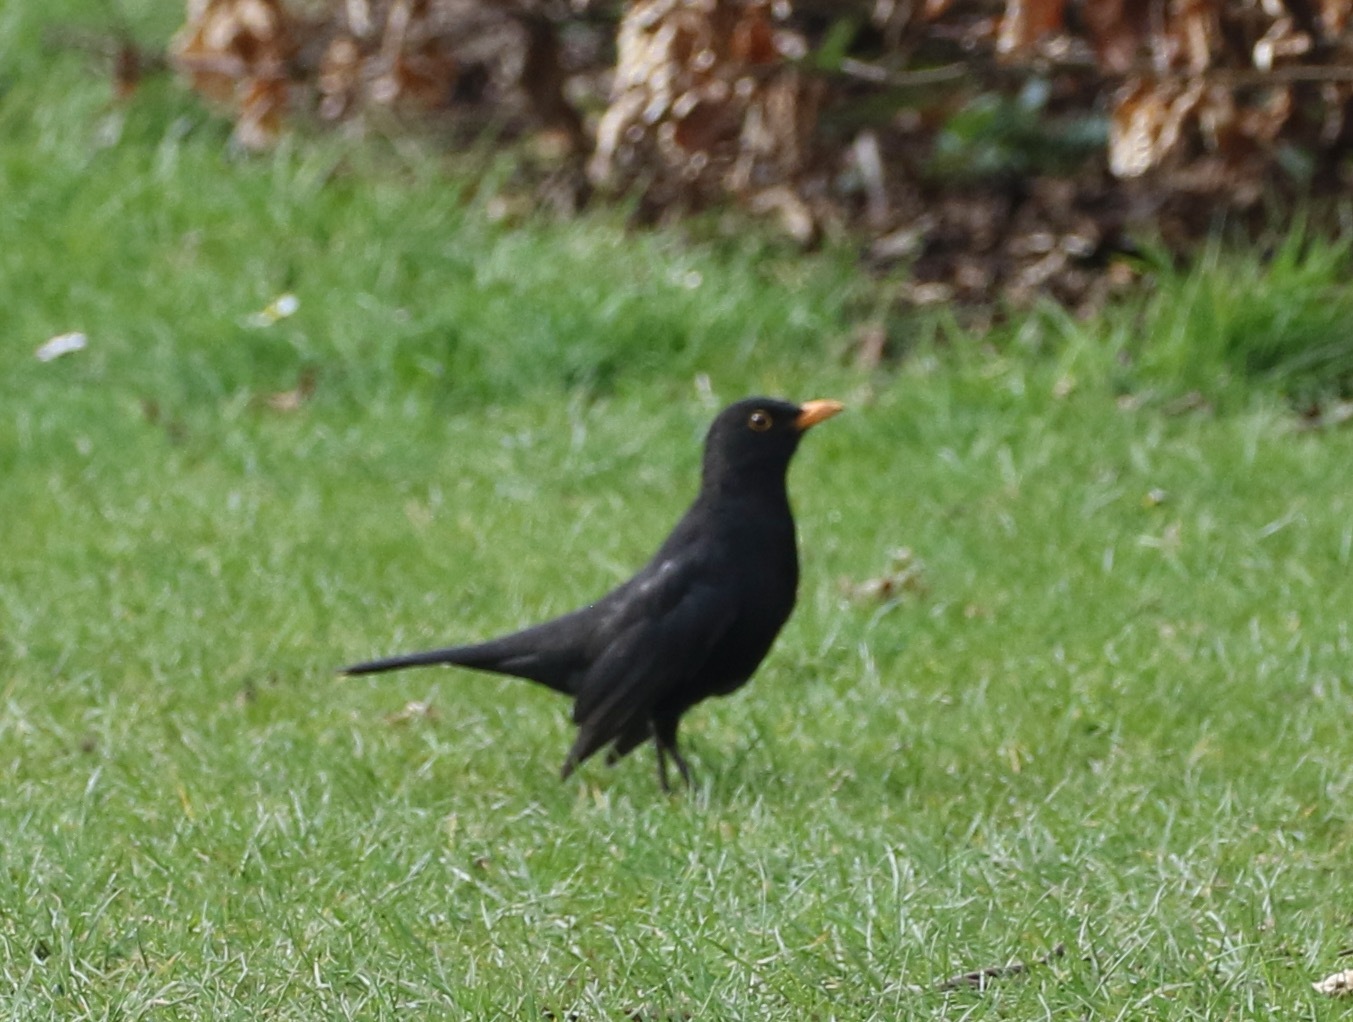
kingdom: Animalia
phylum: Chordata
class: Aves
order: Passeriformes
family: Turdidae
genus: Turdus
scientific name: Turdus merula
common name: Common blackbird
